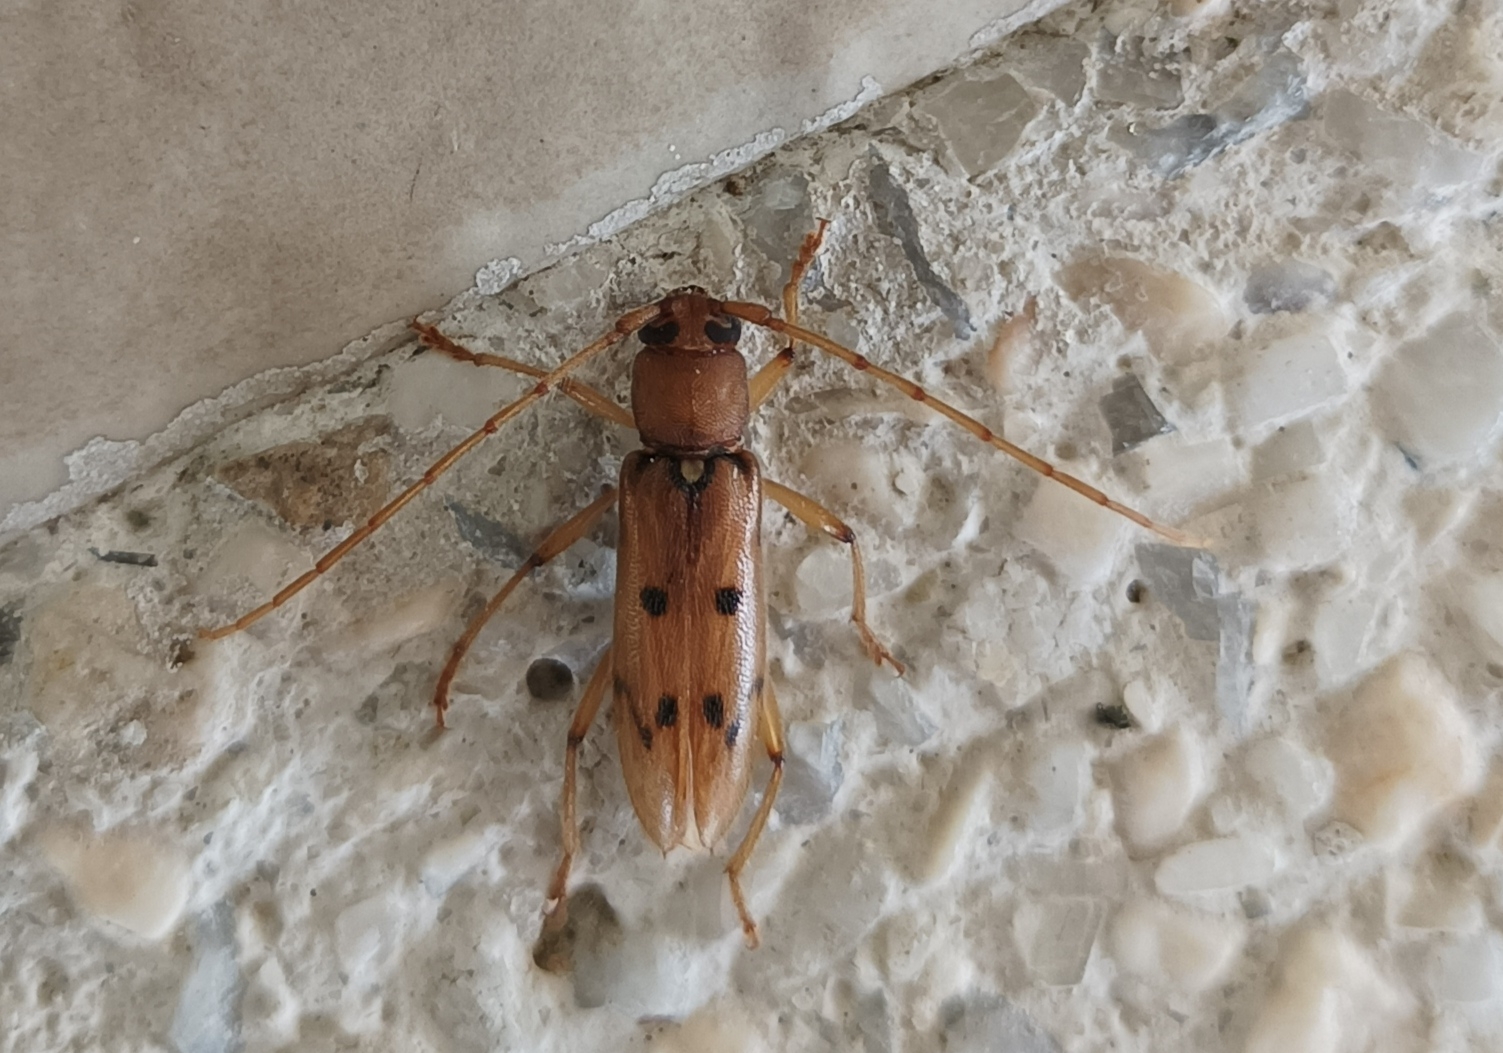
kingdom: Animalia
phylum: Arthropoda
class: Insecta
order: Coleoptera
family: Cerambycidae
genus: Achryson
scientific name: Achryson surinamum
